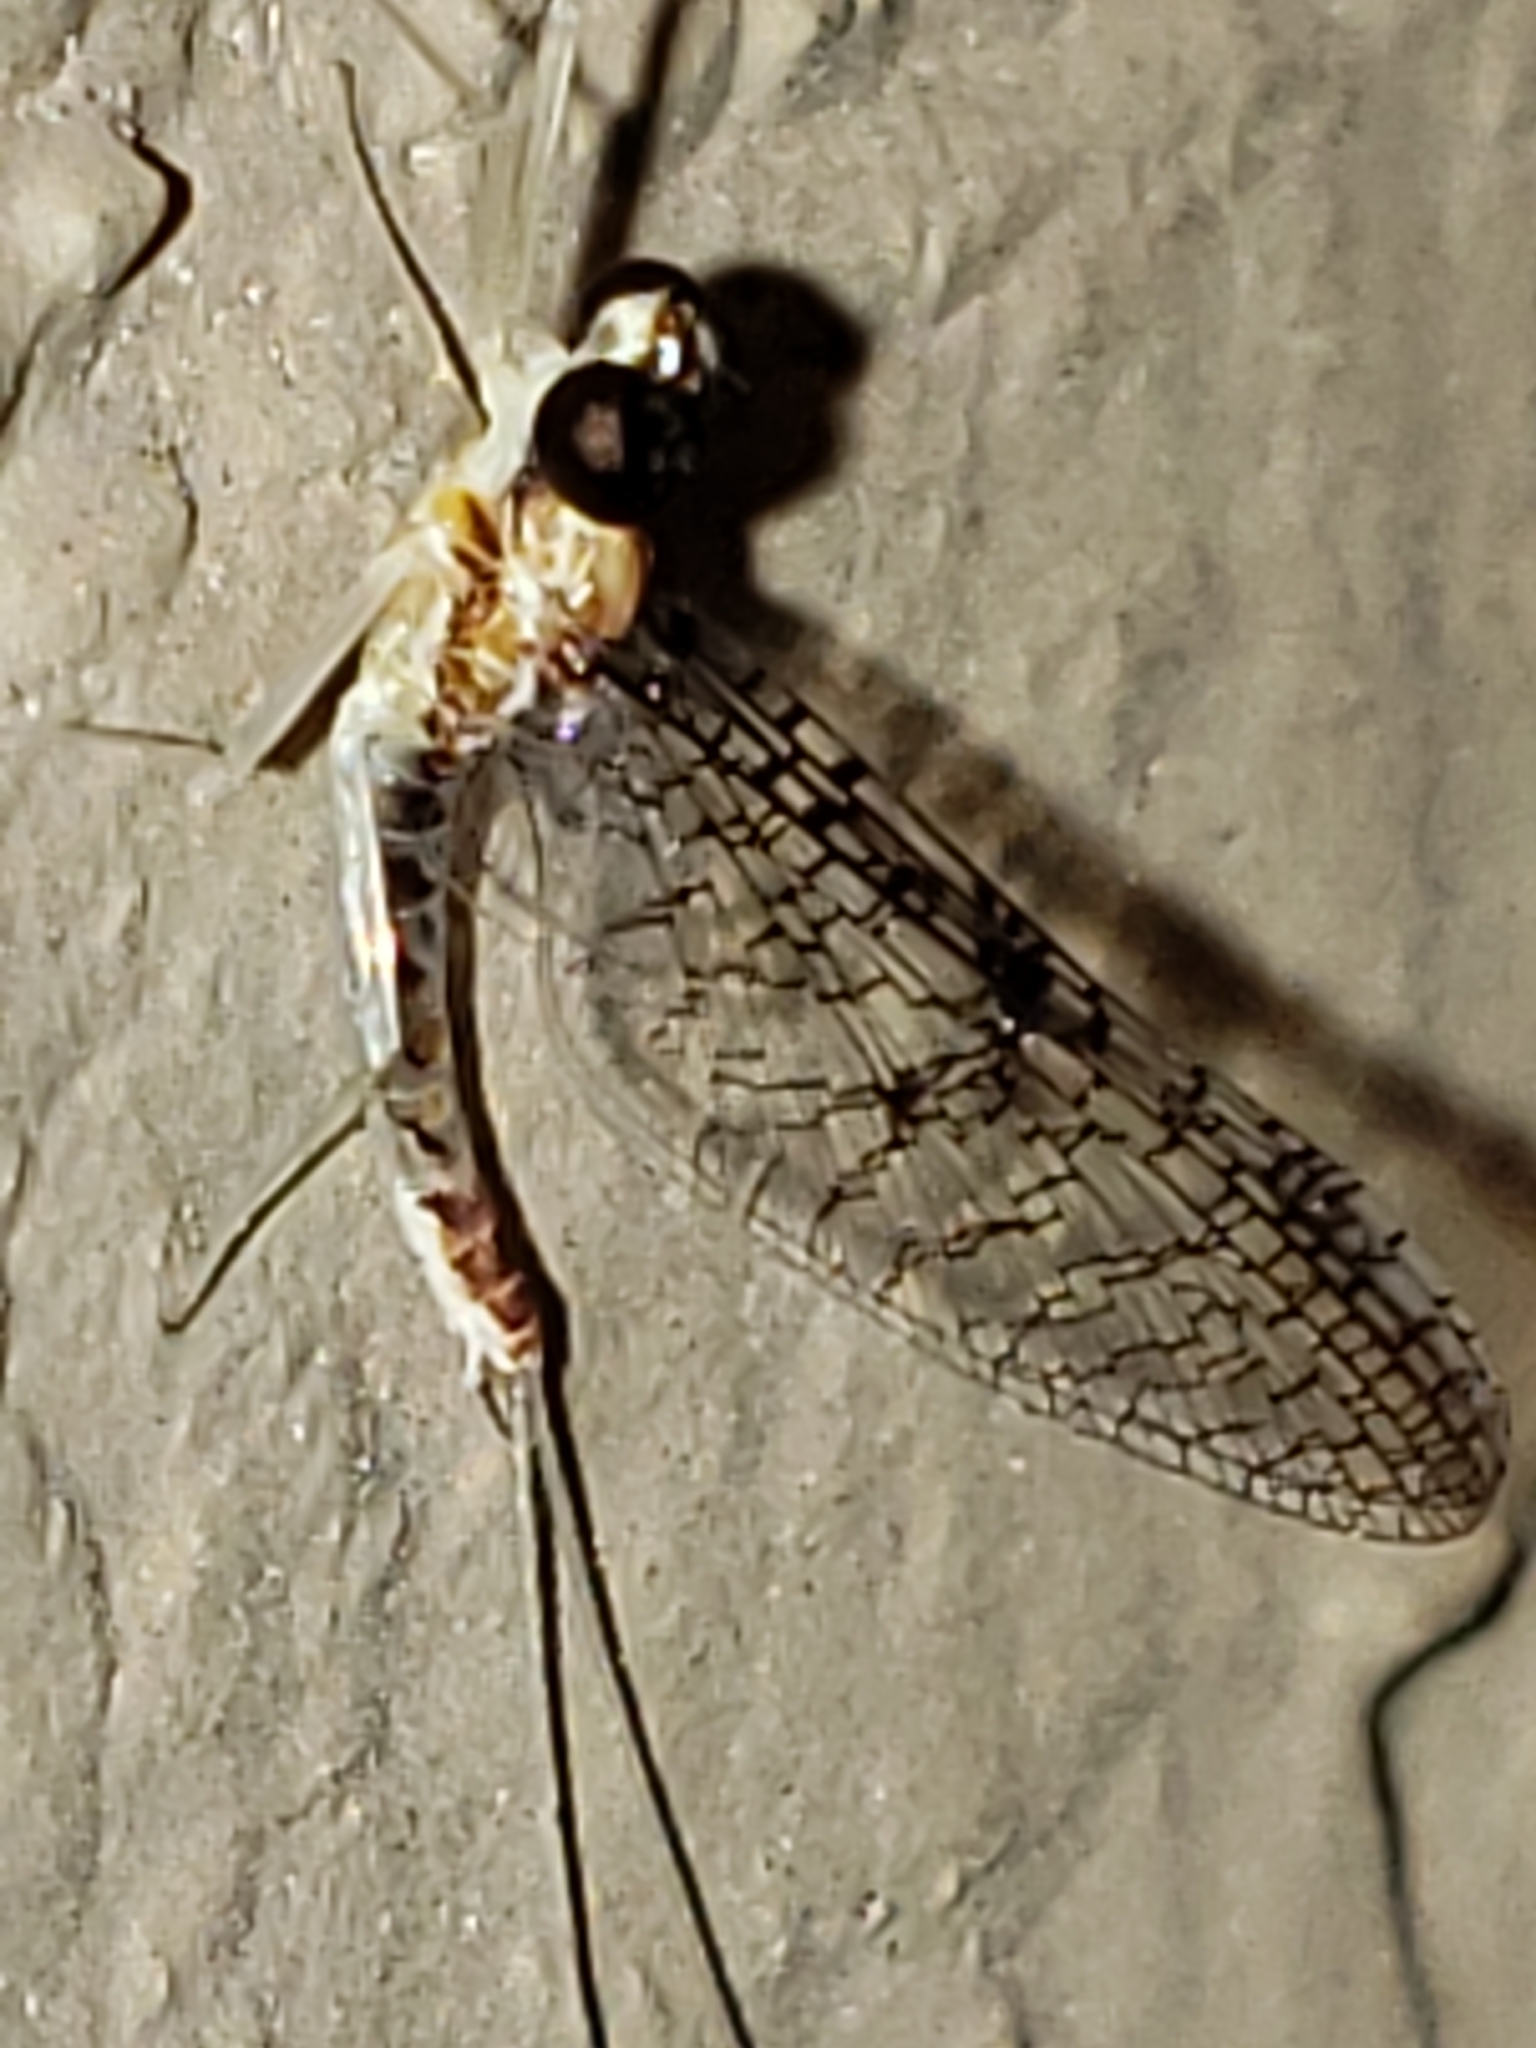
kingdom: Animalia
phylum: Arthropoda
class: Insecta
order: Ephemeroptera
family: Heptageniidae
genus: Leucrocuta
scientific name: Leucrocuta minerva
